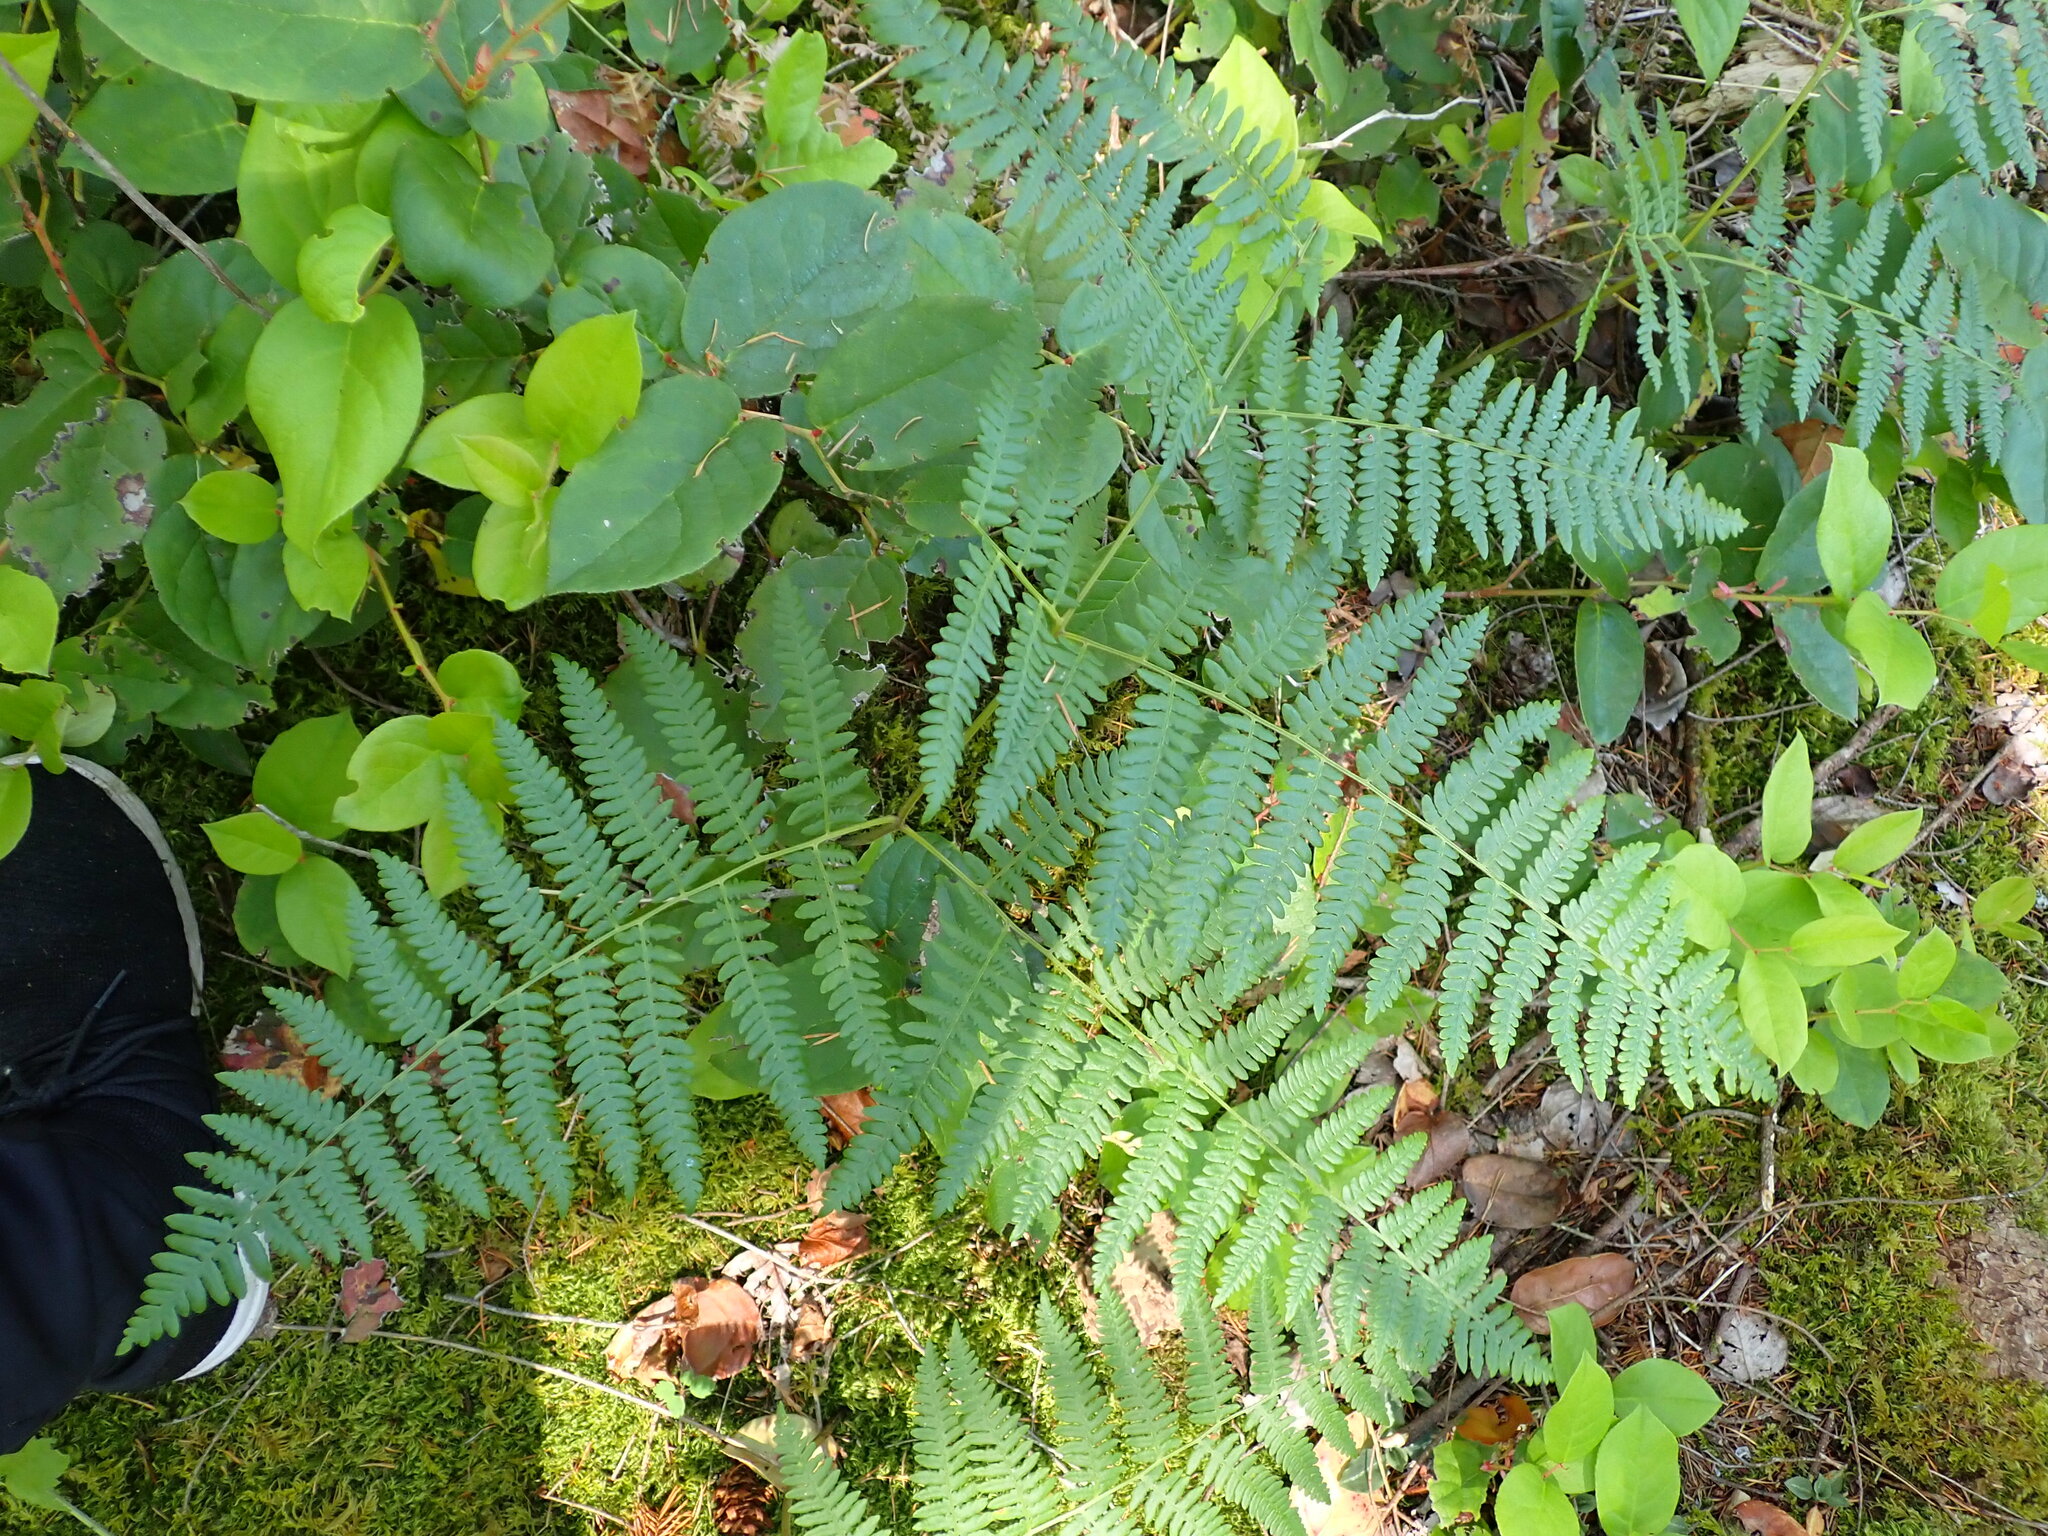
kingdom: Plantae
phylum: Tracheophyta
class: Polypodiopsida
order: Polypodiales
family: Dennstaedtiaceae
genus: Pteridium
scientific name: Pteridium aquilinum
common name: Bracken
